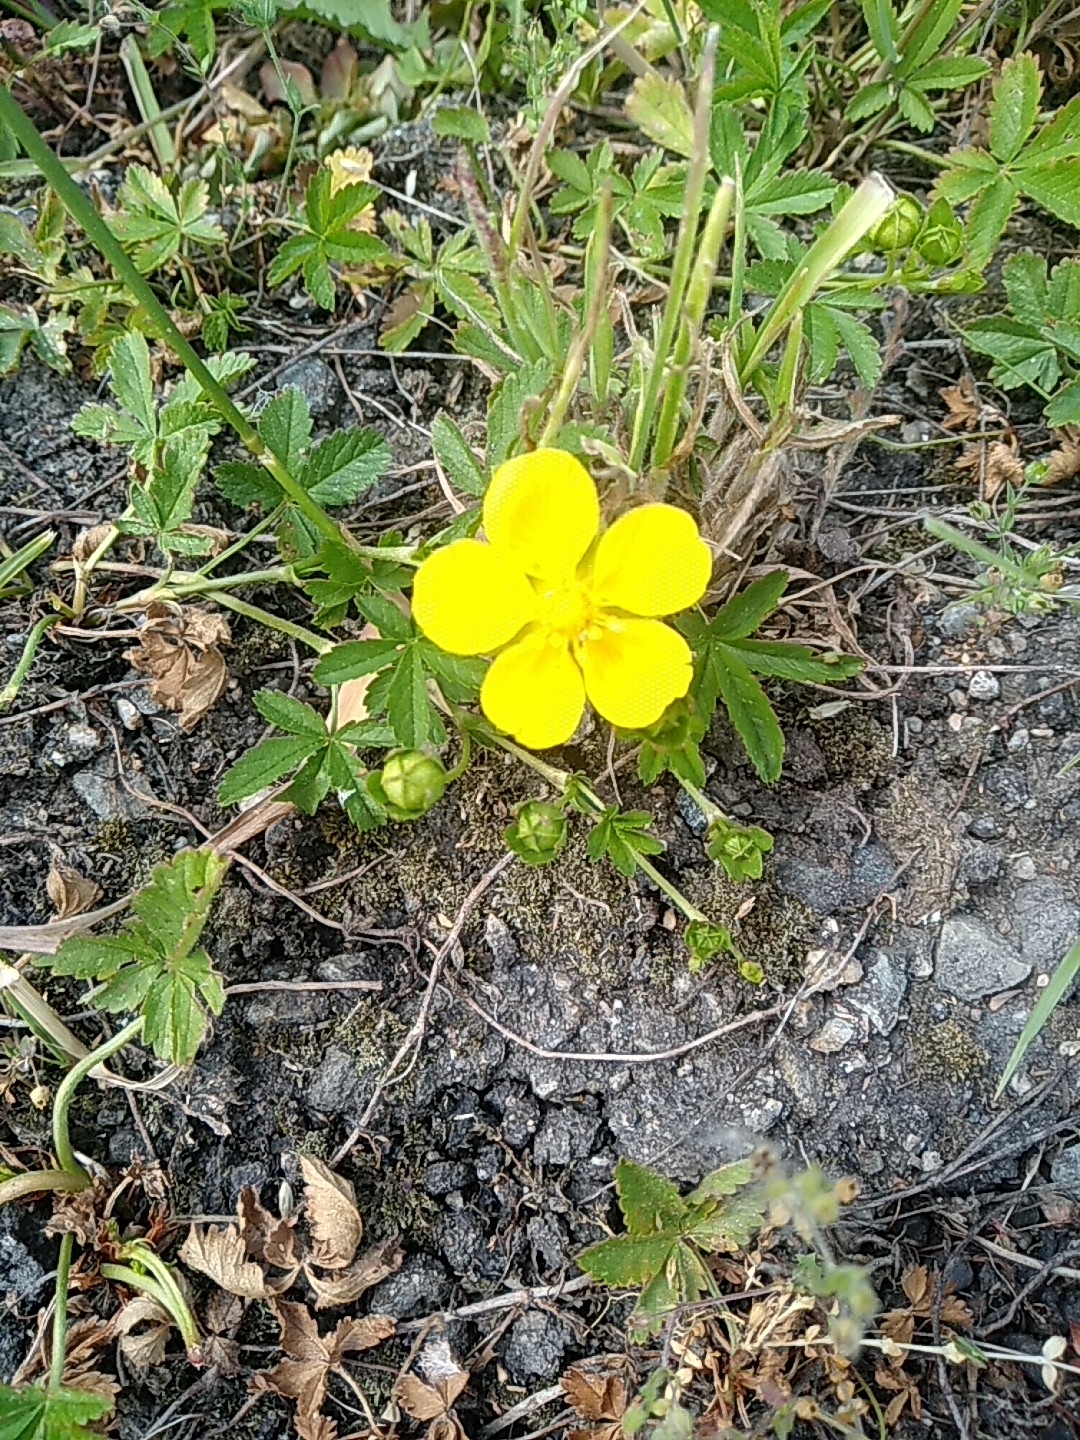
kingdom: Plantae
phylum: Tracheophyta
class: Magnoliopsida
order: Rosales
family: Rosaceae
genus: Potentilla
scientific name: Potentilla reptans
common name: Creeping cinquefoil
